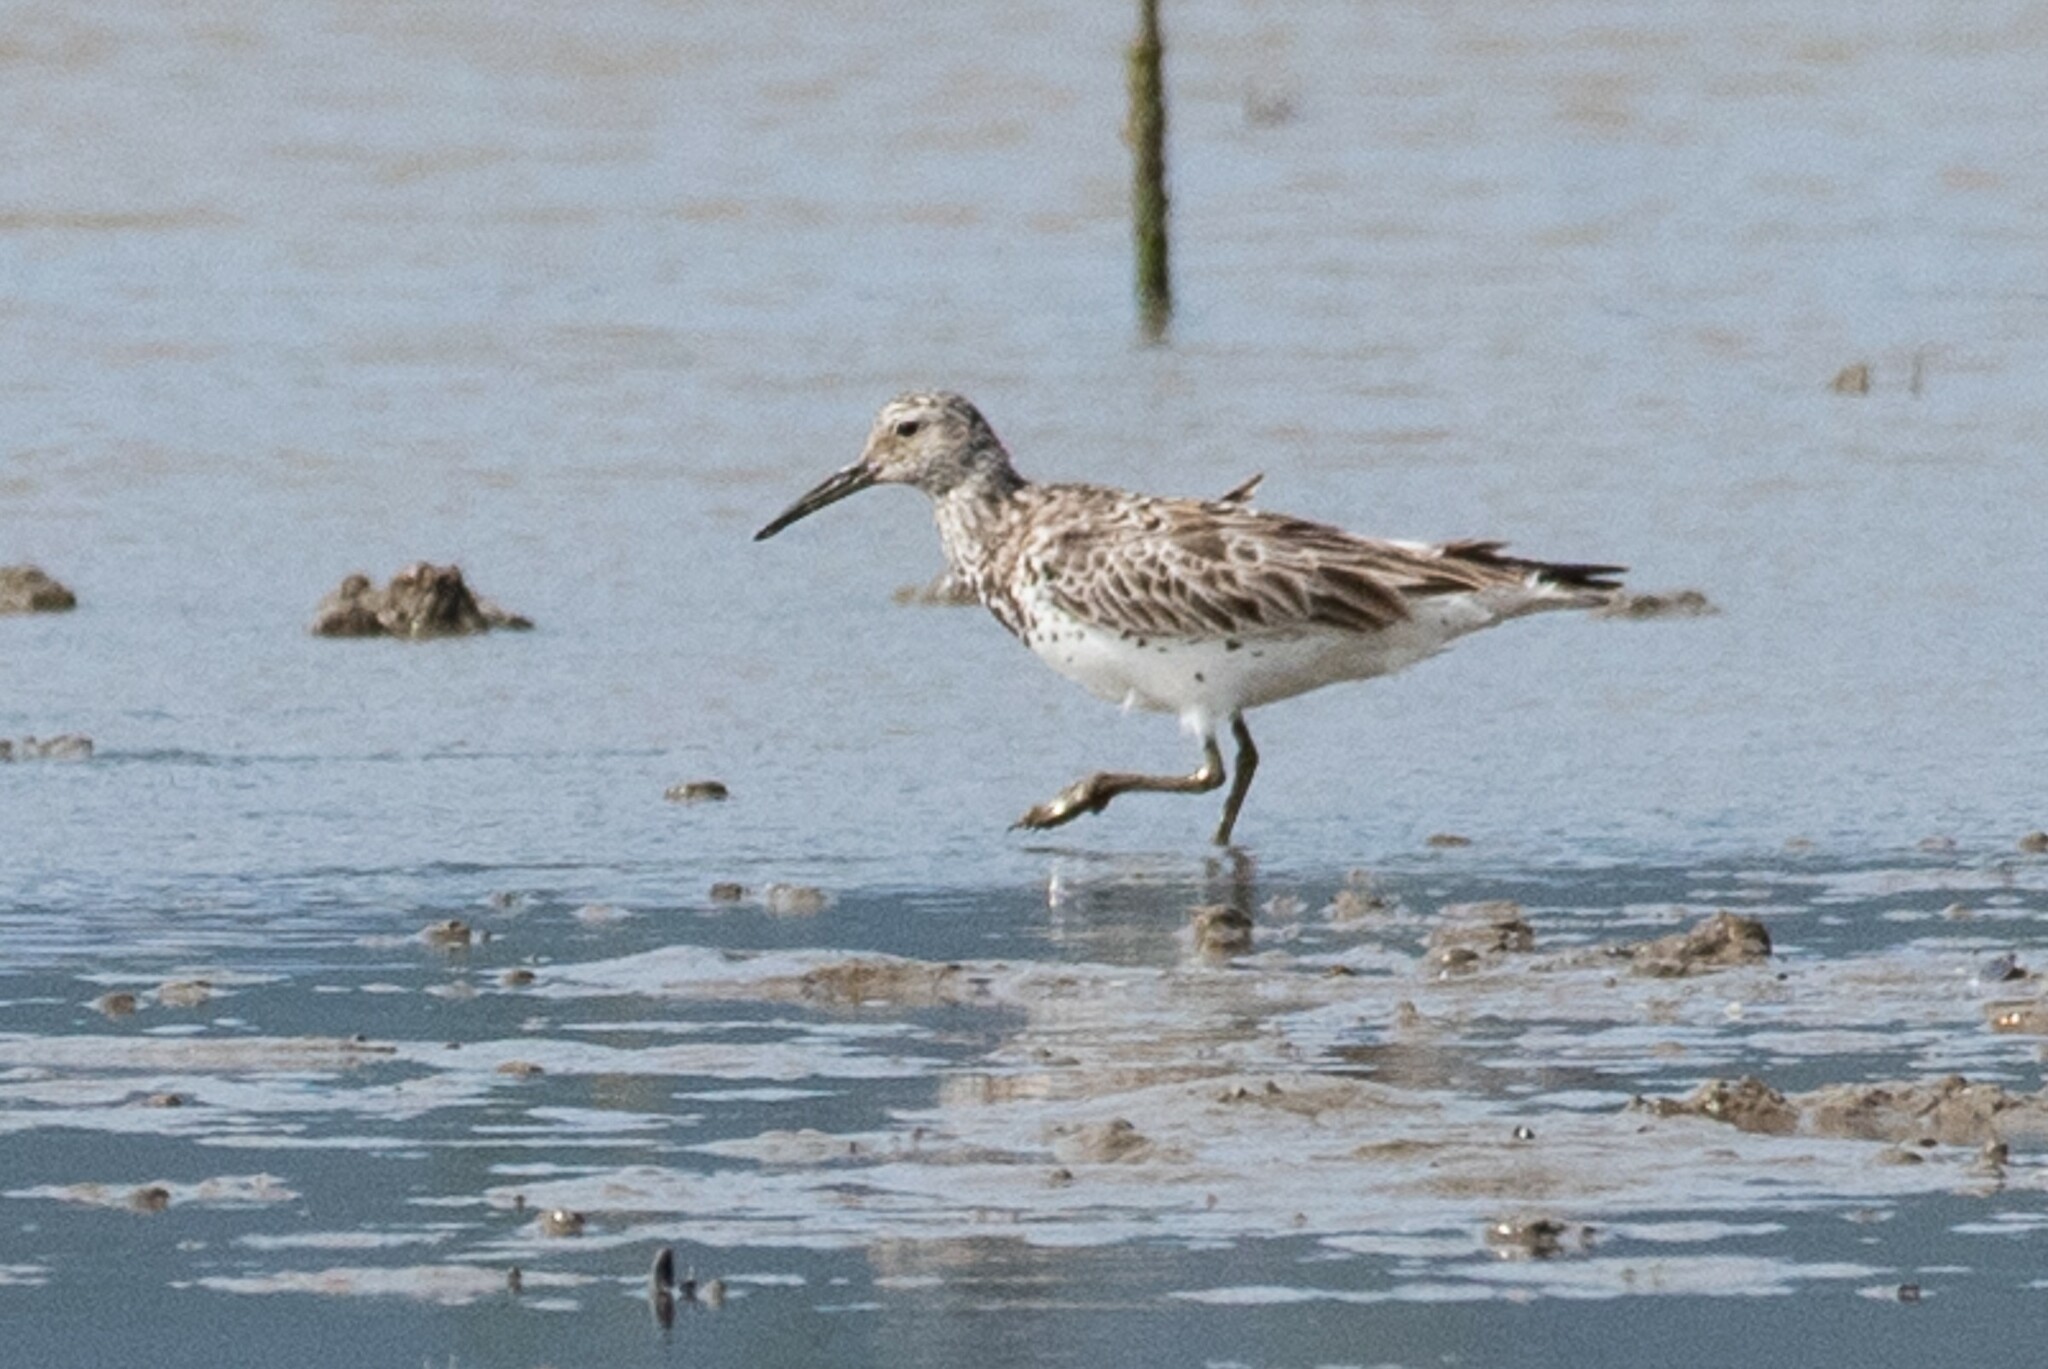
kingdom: Animalia
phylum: Chordata
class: Aves
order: Charadriiformes
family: Scolopacidae
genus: Calidris
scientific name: Calidris tenuirostris
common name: Great knot
